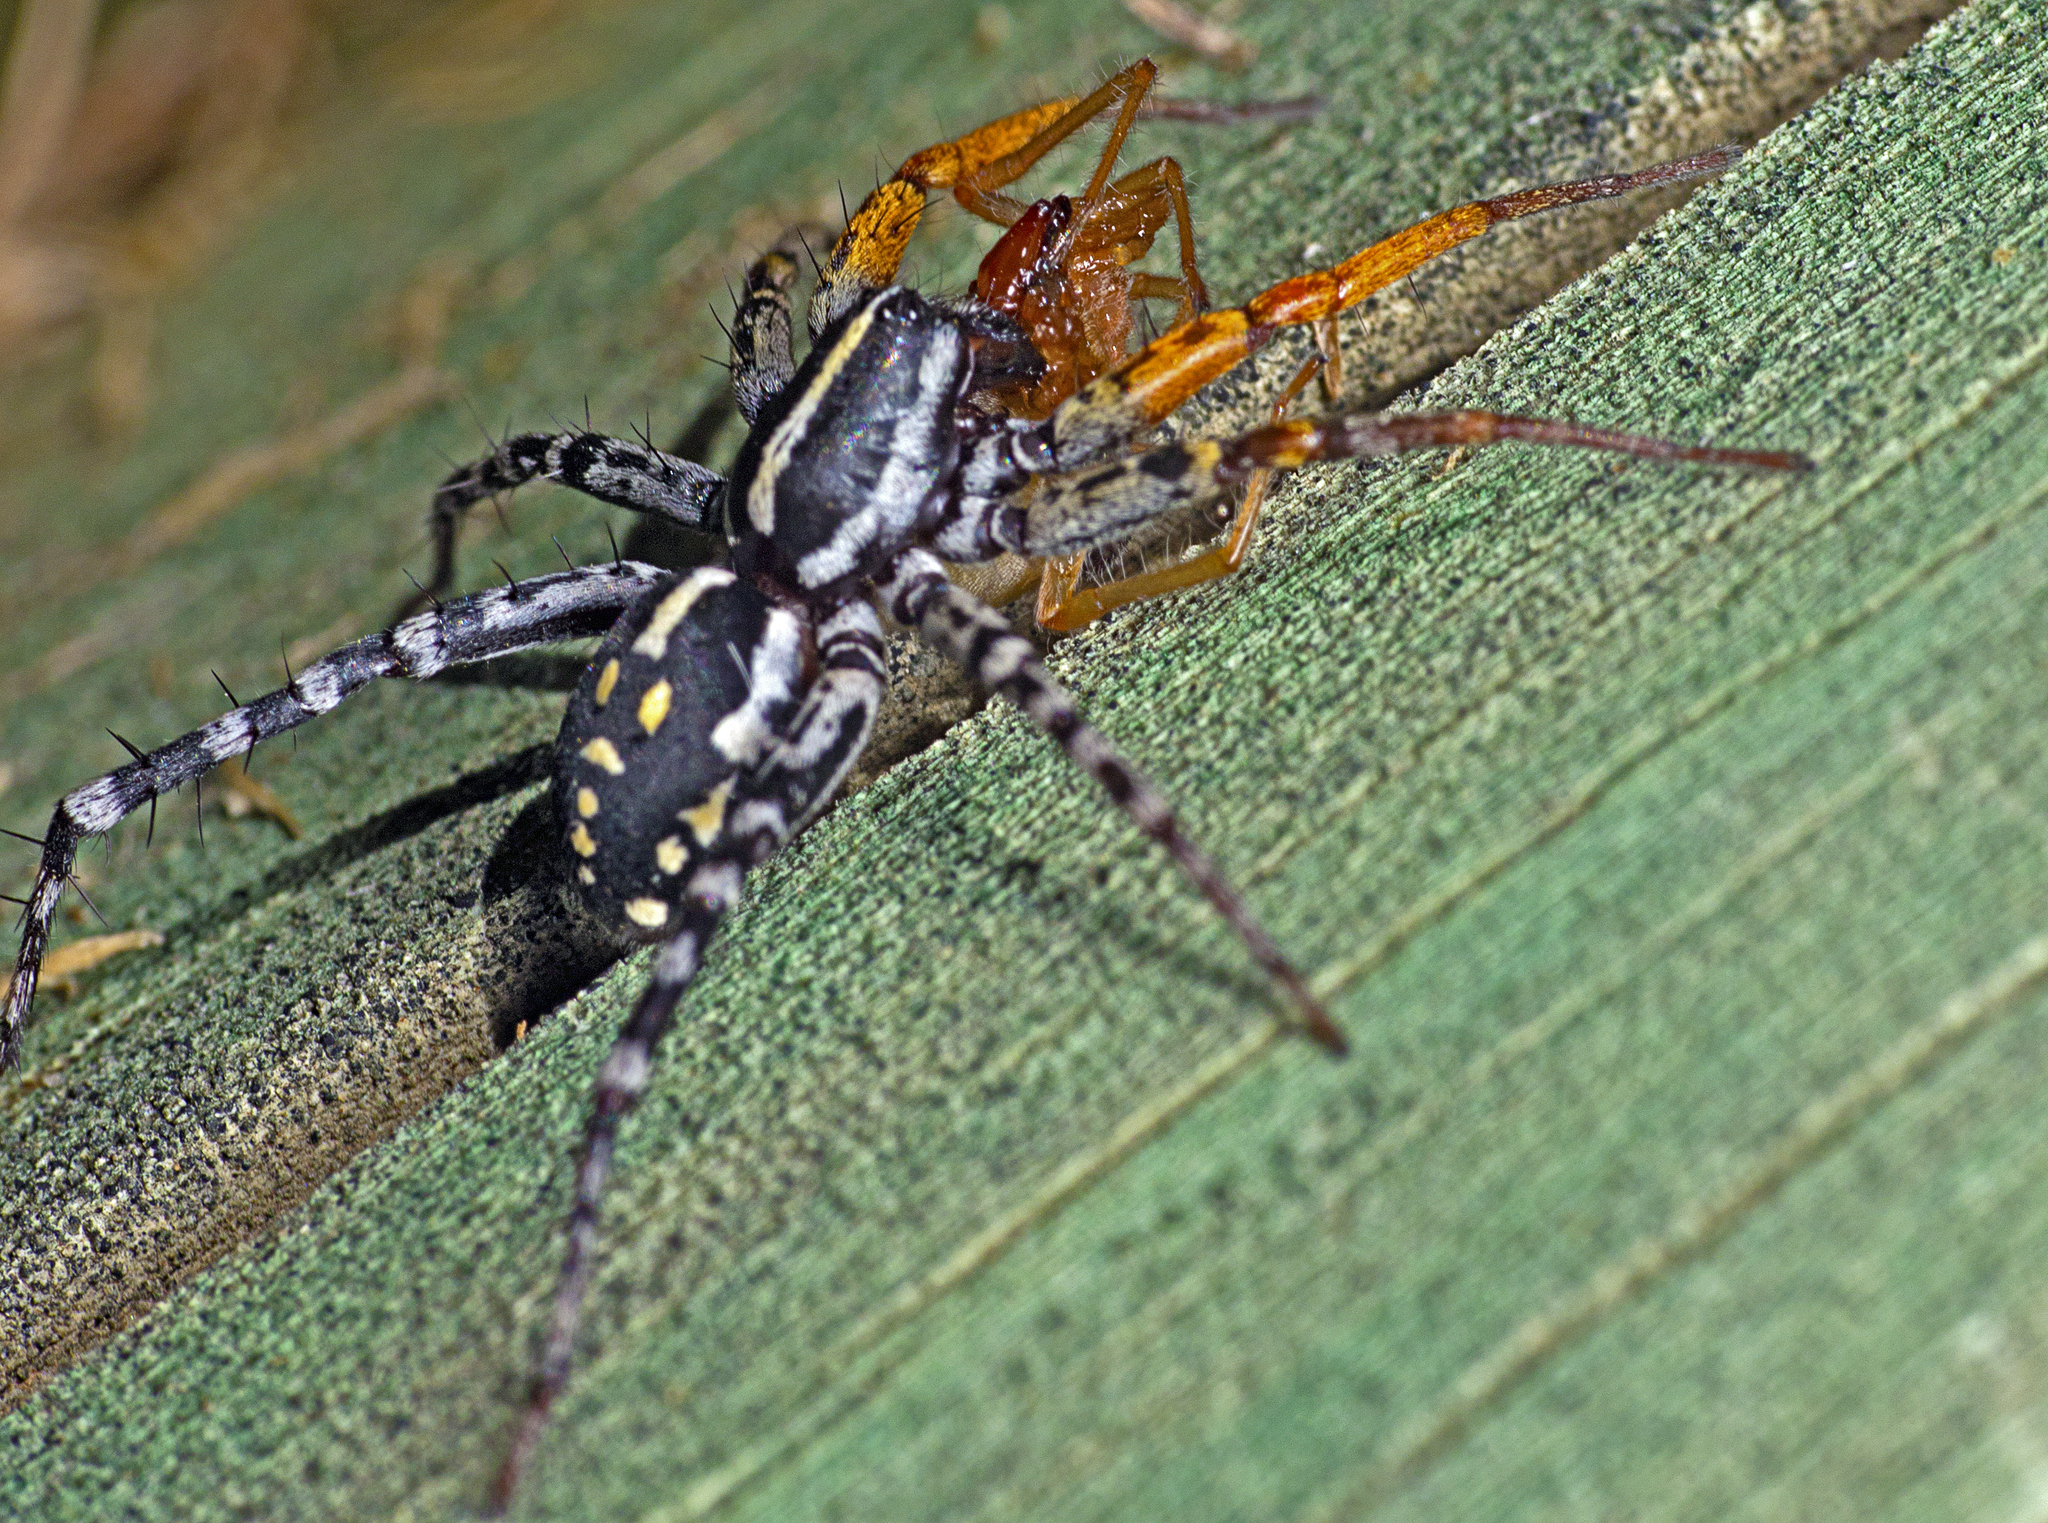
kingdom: Animalia
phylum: Arthropoda
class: Arachnida
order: Araneae
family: Corinnidae
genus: Nyssus
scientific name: Nyssus coloripes
